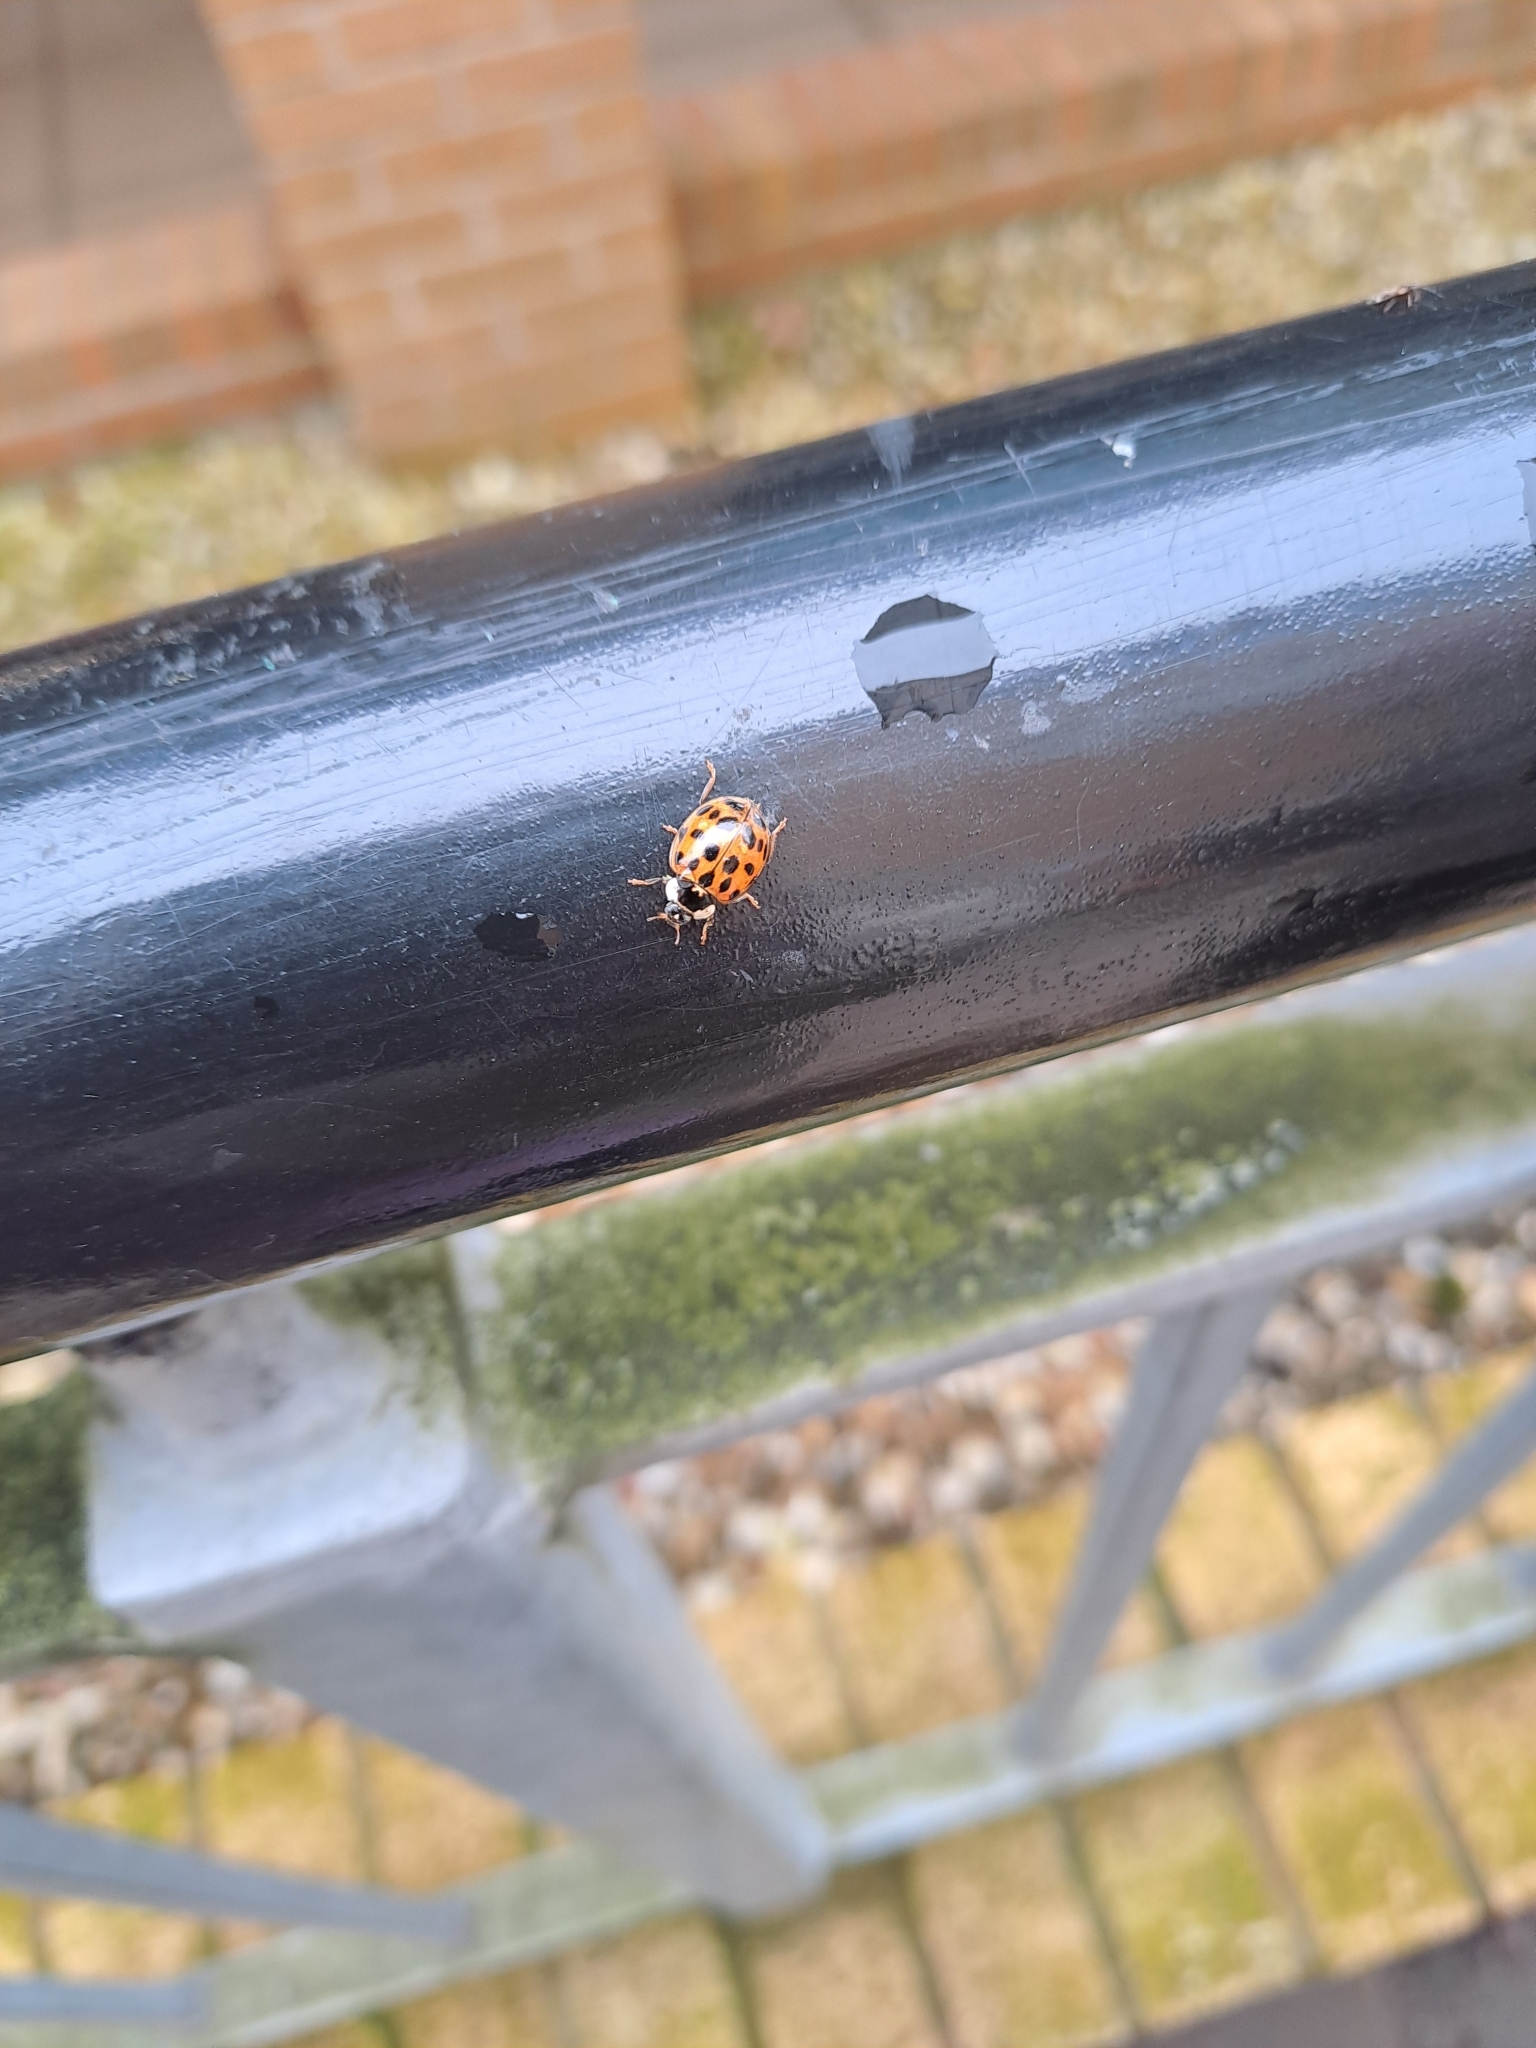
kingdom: Animalia
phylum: Arthropoda
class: Insecta
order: Coleoptera
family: Coccinellidae
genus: Harmonia
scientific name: Harmonia axyridis
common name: Harlequin ladybird
